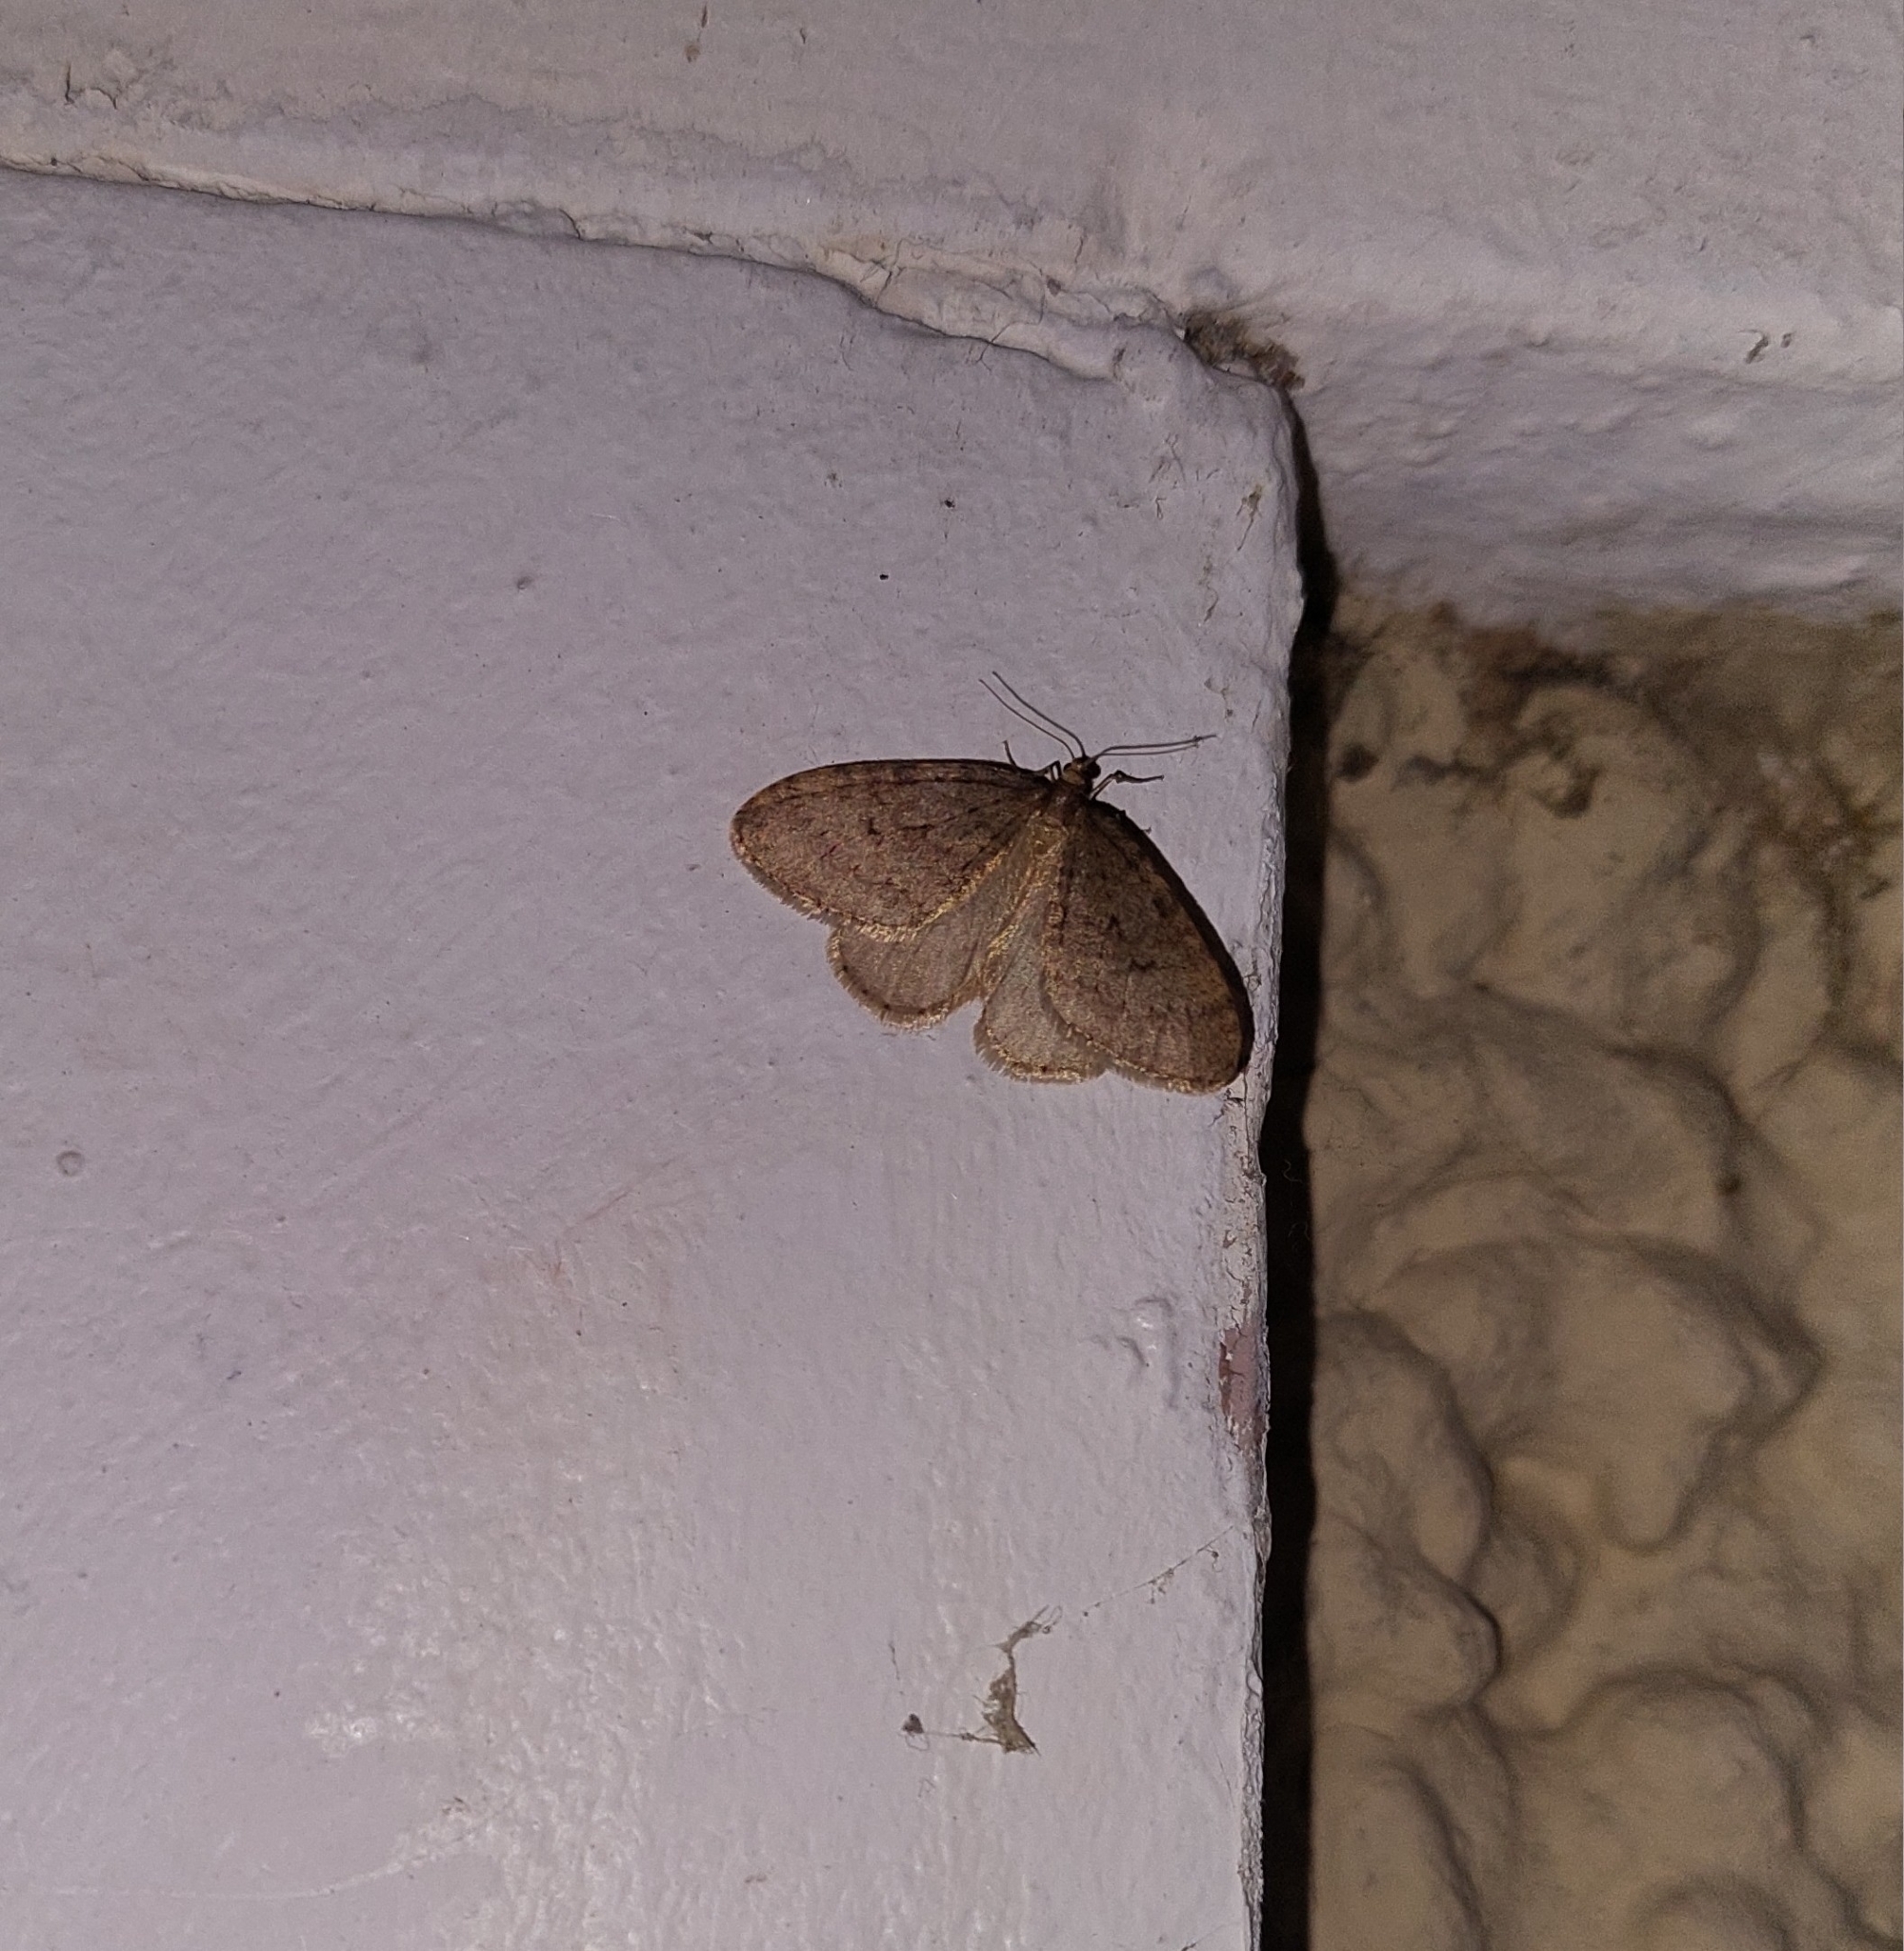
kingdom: Animalia
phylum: Arthropoda
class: Insecta
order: Lepidoptera
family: Geometridae
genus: Operophtera
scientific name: Operophtera brumata
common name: Winter moth
